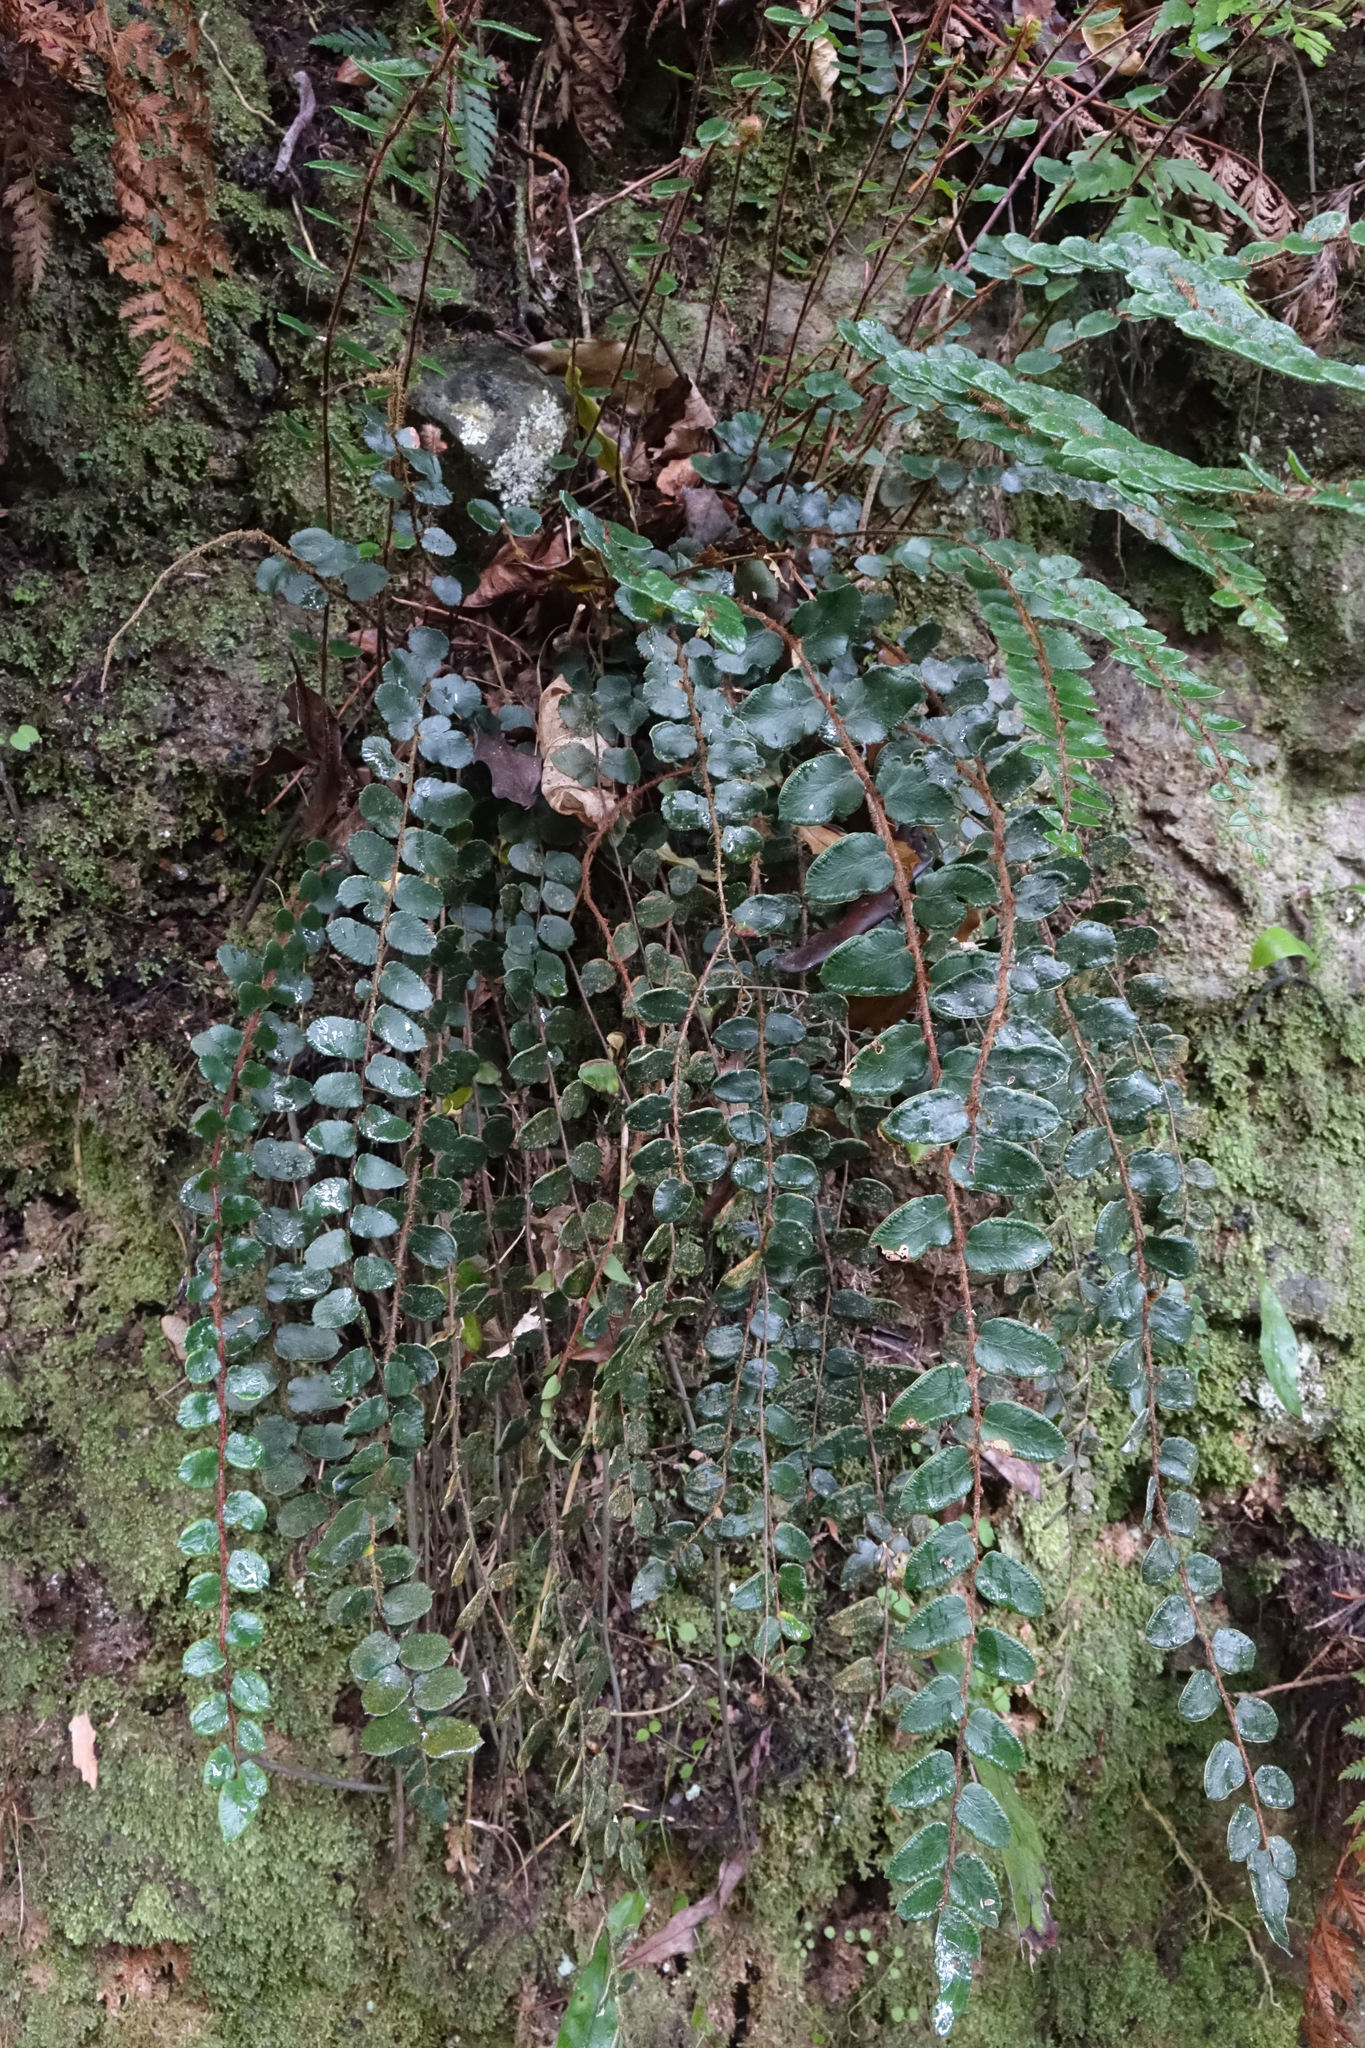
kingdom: Plantae
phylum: Tracheophyta
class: Polypodiopsida
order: Polypodiales
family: Pteridaceae
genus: Pellaea
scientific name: Pellaea rotundifolia
